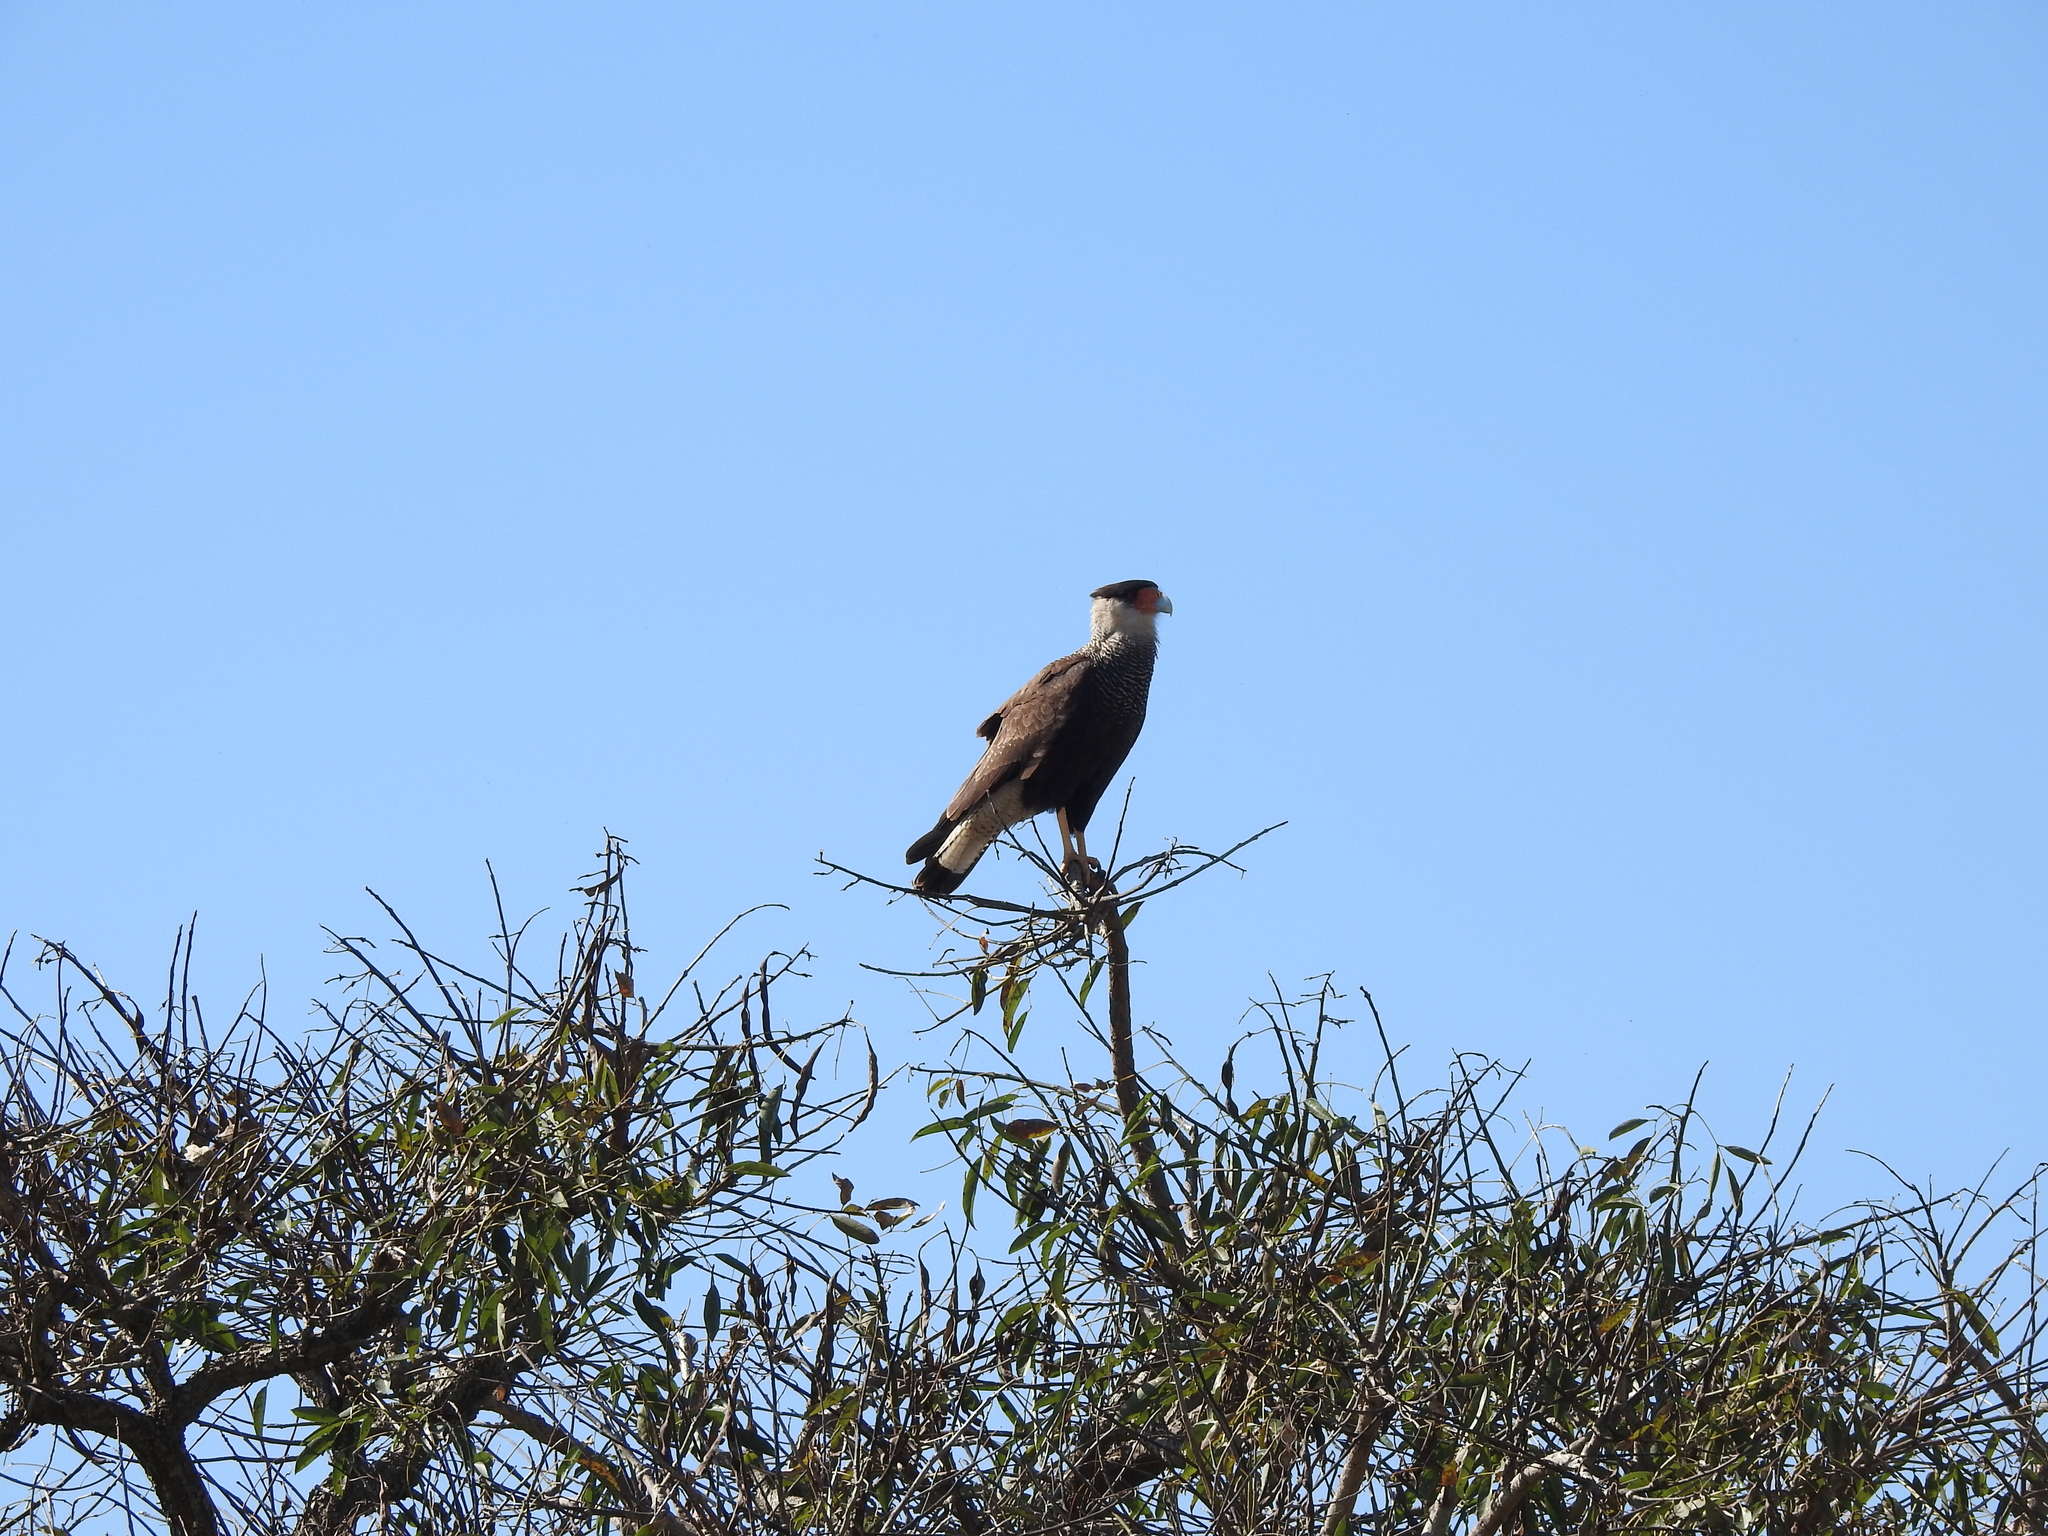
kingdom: Animalia
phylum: Chordata
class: Aves
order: Falconiformes
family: Falconidae
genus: Caracara
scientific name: Caracara plancus
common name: Southern caracara
